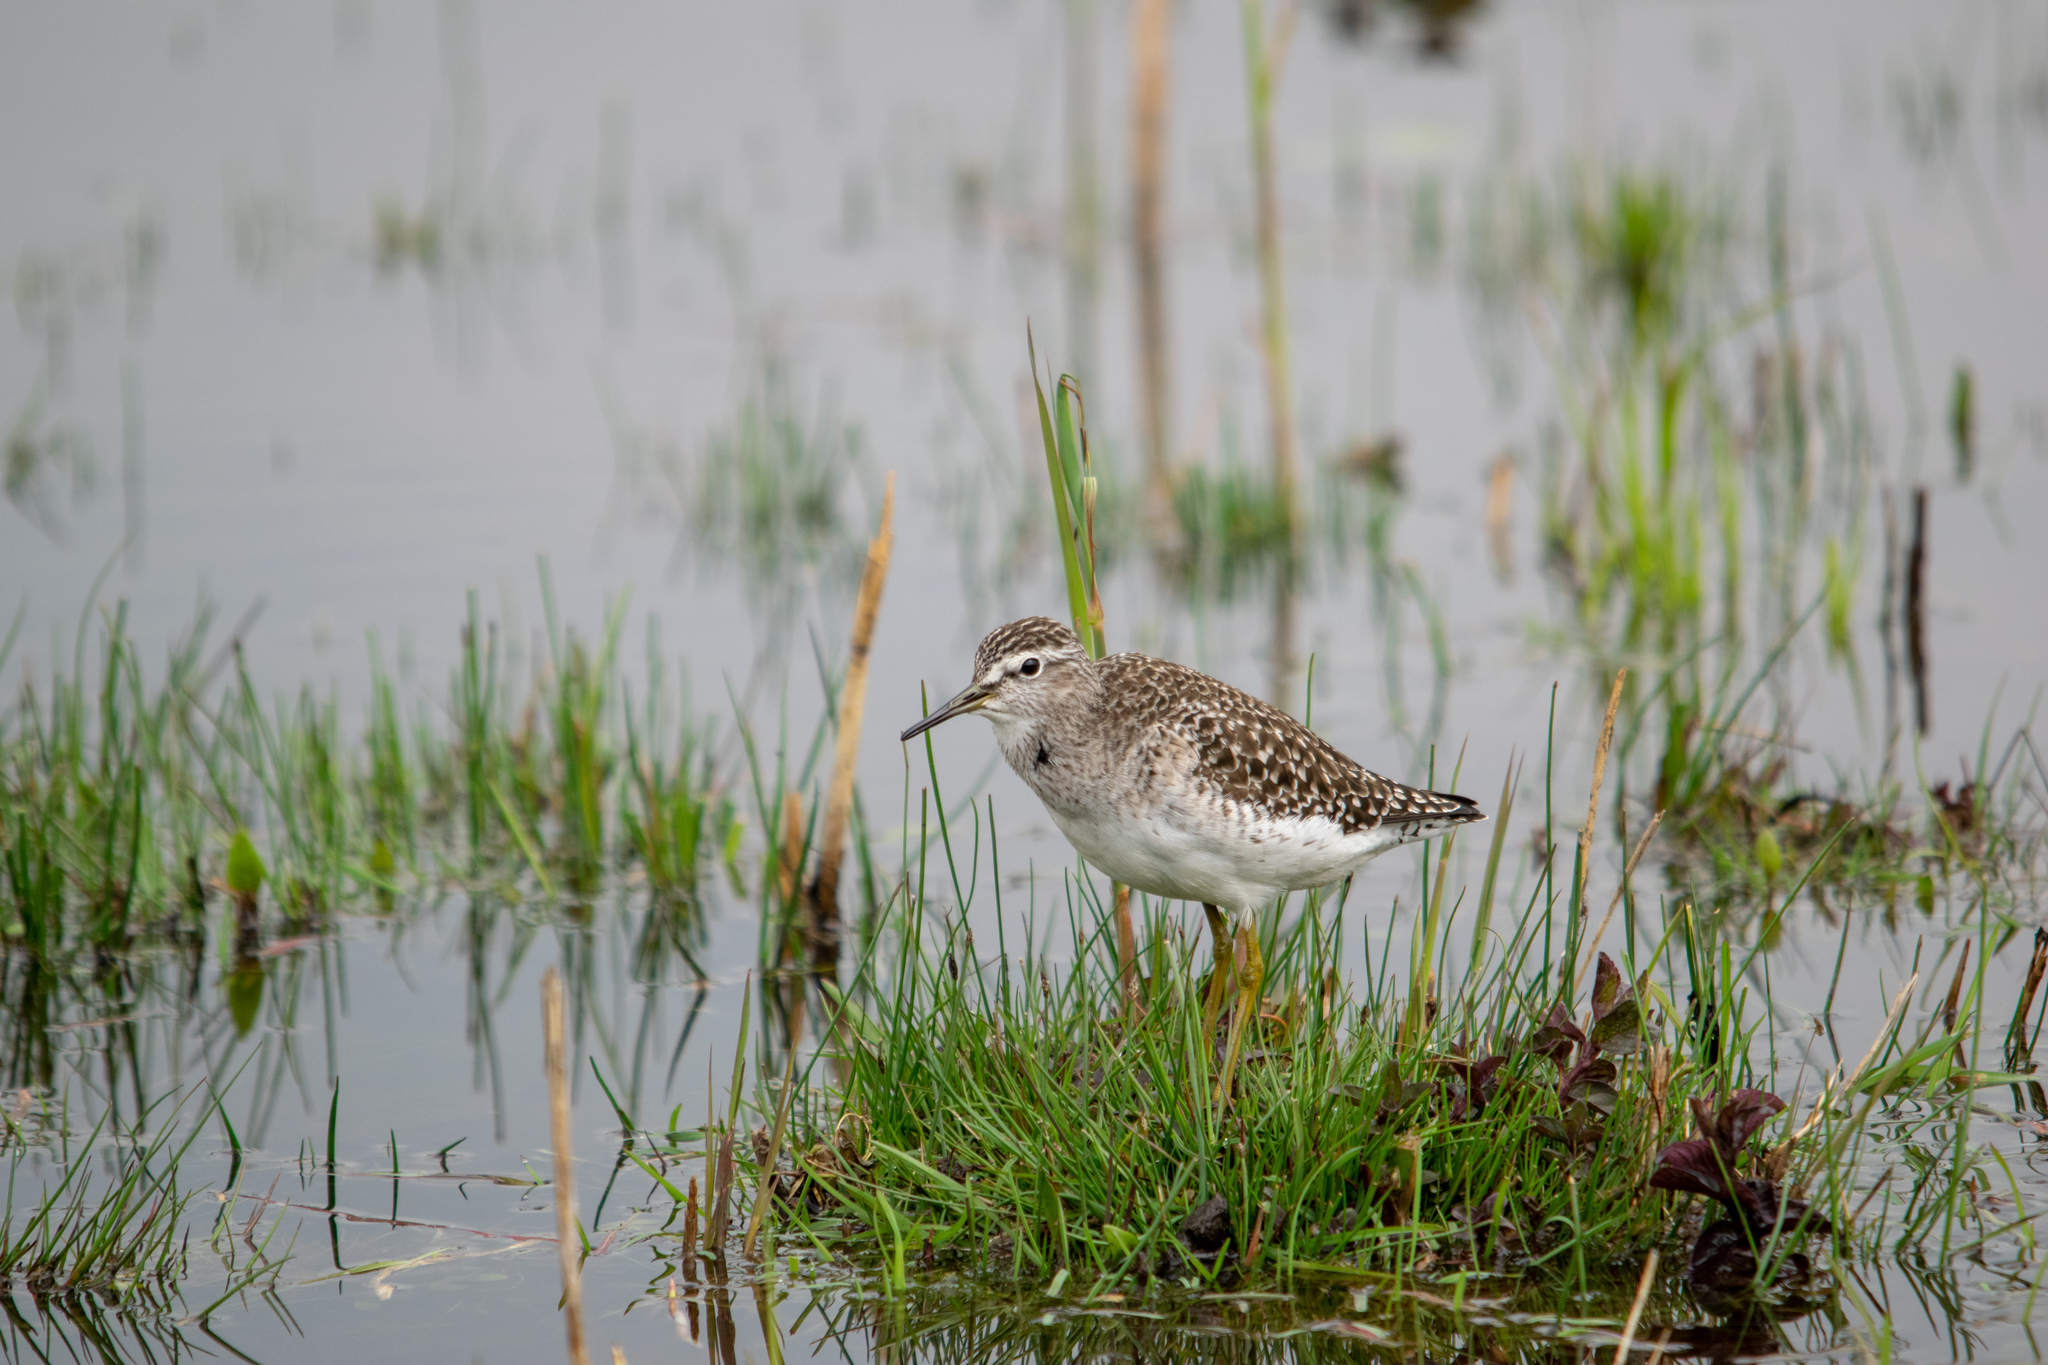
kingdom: Animalia
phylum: Chordata
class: Aves
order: Charadriiformes
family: Scolopacidae
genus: Tringa
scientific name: Tringa glareola
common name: Wood sandpiper
